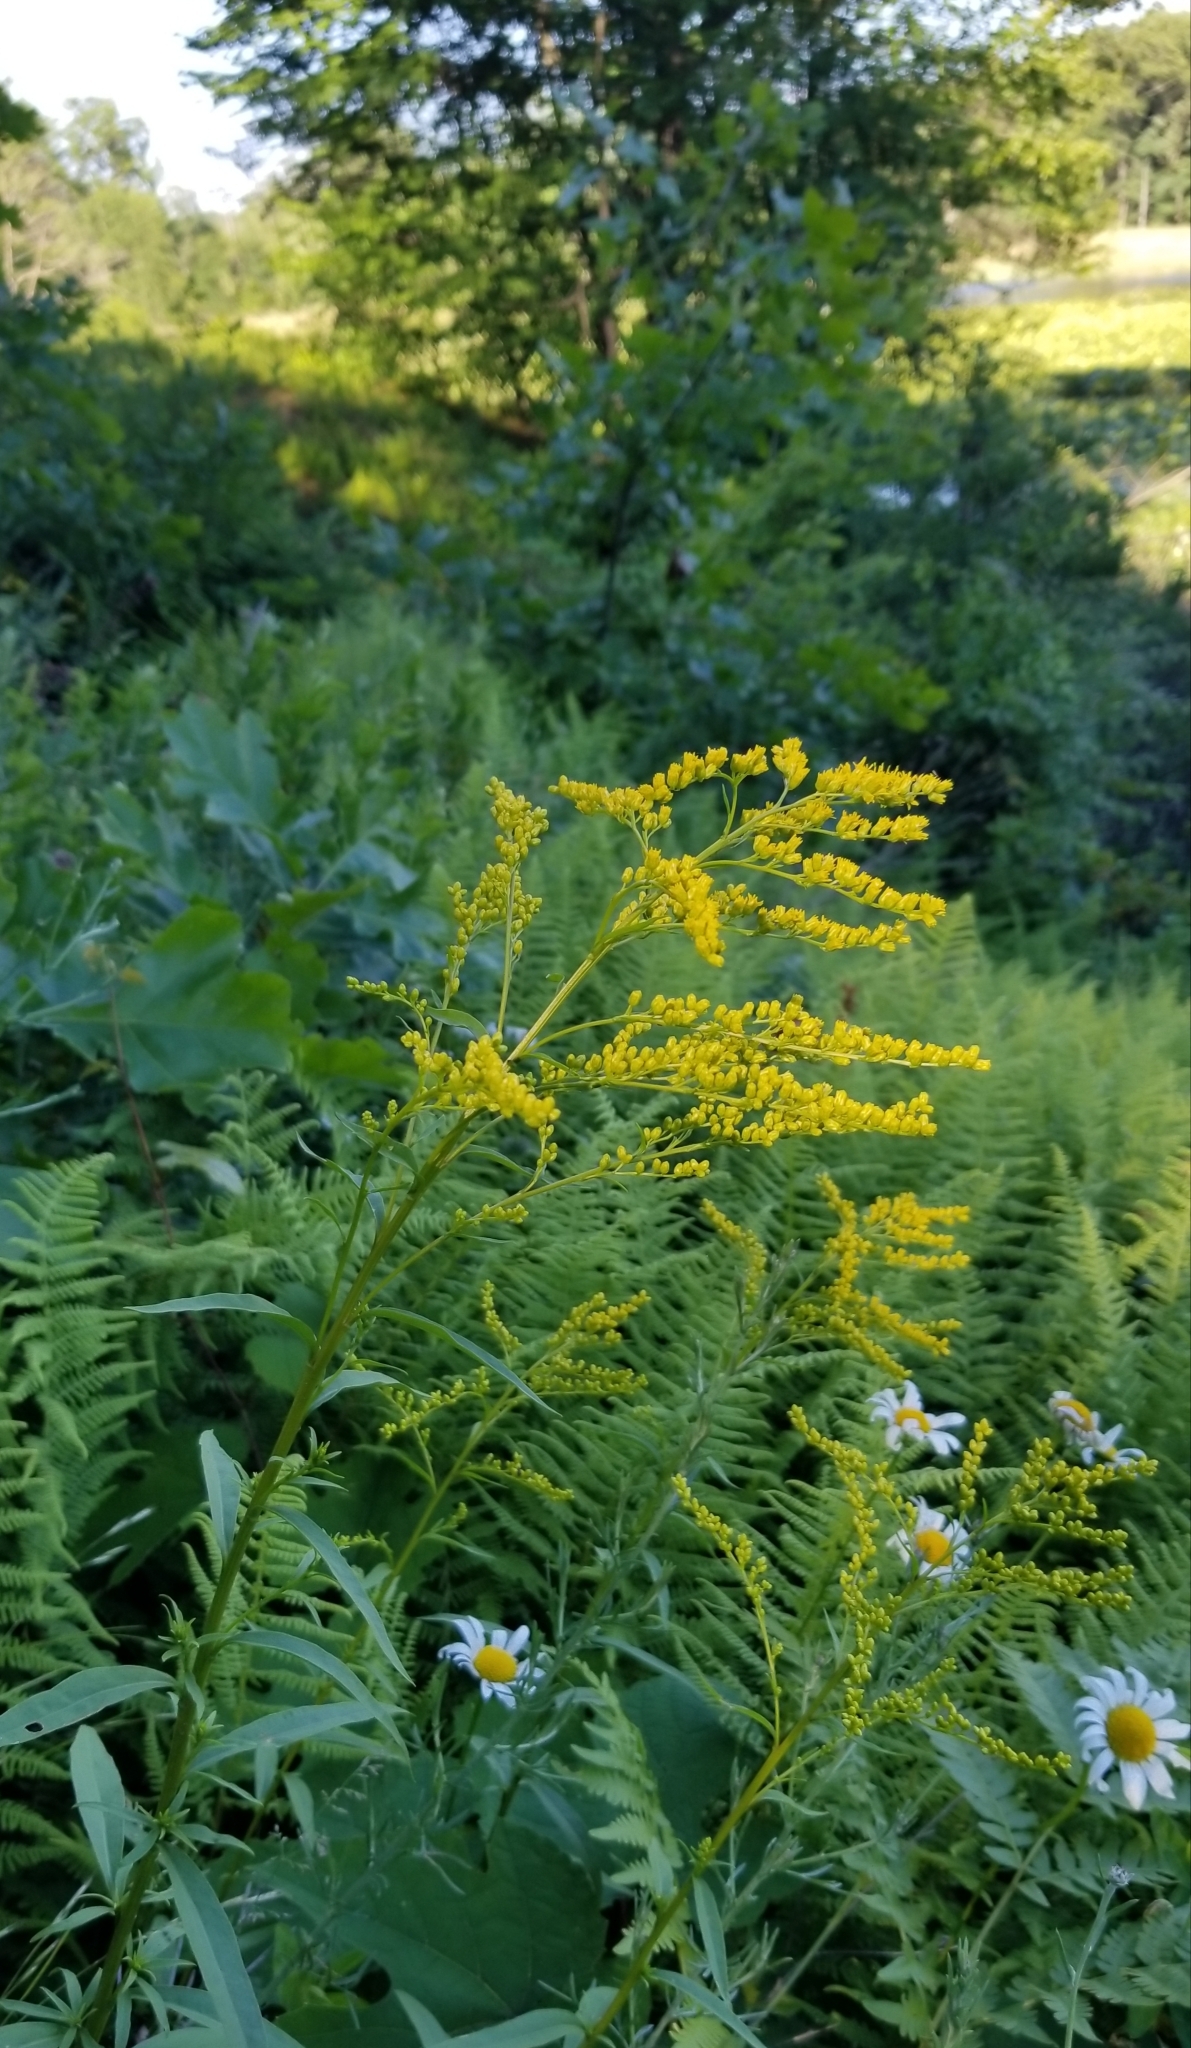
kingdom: Plantae
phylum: Tracheophyta
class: Magnoliopsida
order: Asterales
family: Asteraceae
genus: Solidago
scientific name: Solidago juncea
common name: Early goldenrod
